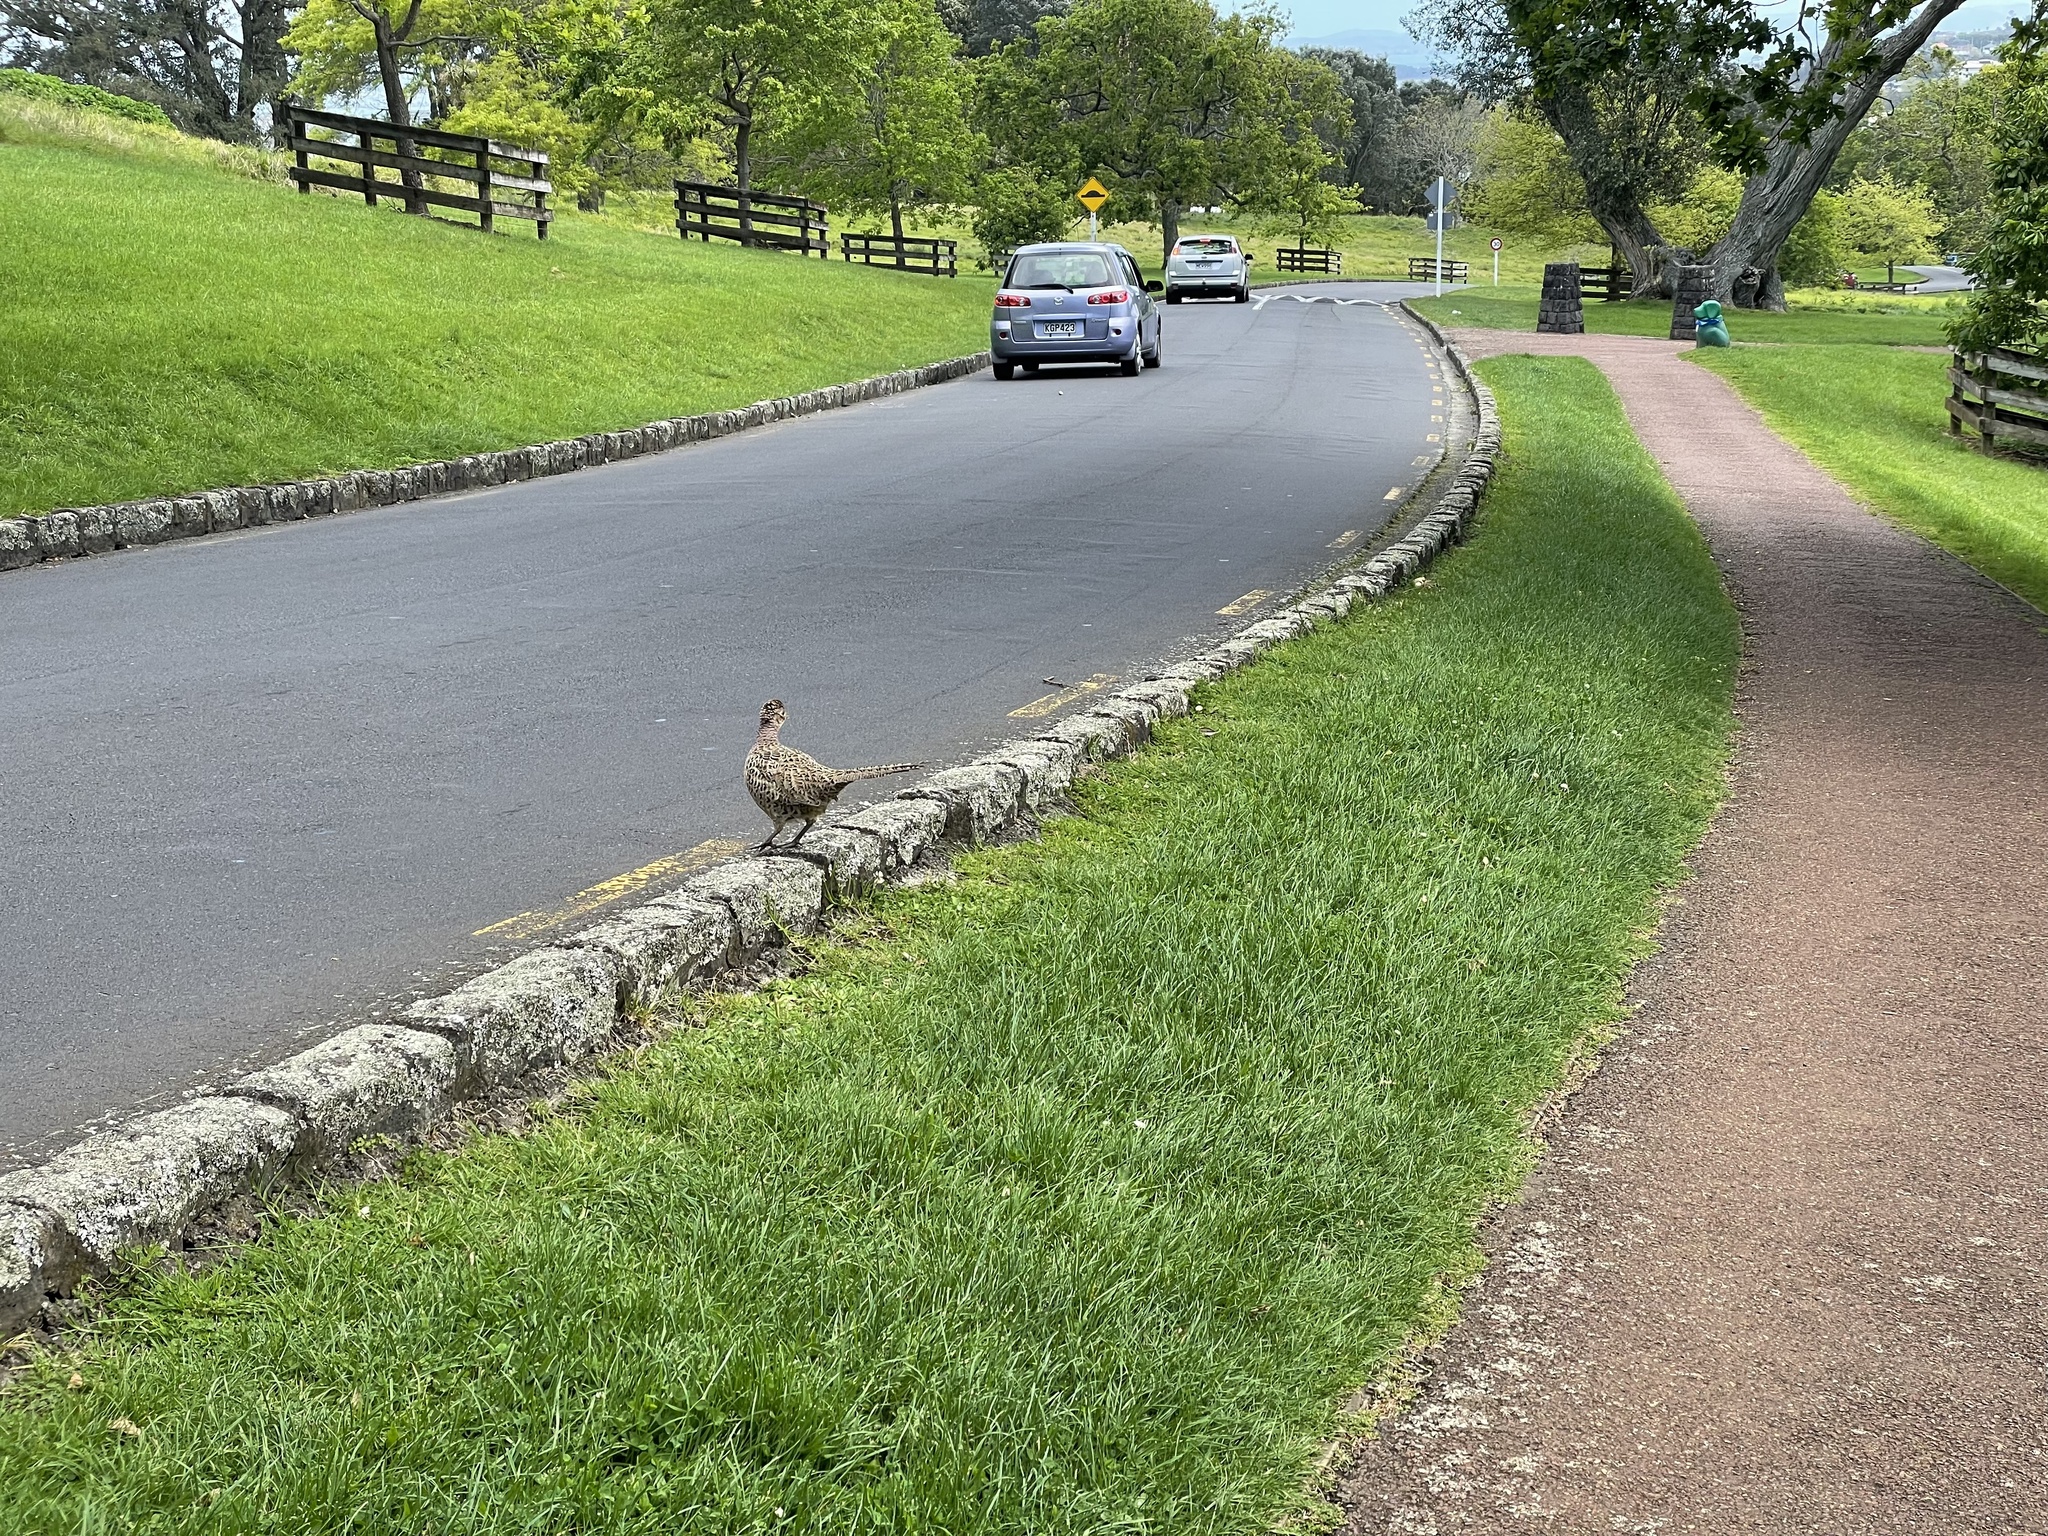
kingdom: Animalia
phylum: Chordata
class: Aves
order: Galliformes
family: Phasianidae
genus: Phasianus
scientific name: Phasianus colchicus
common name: Common pheasant
